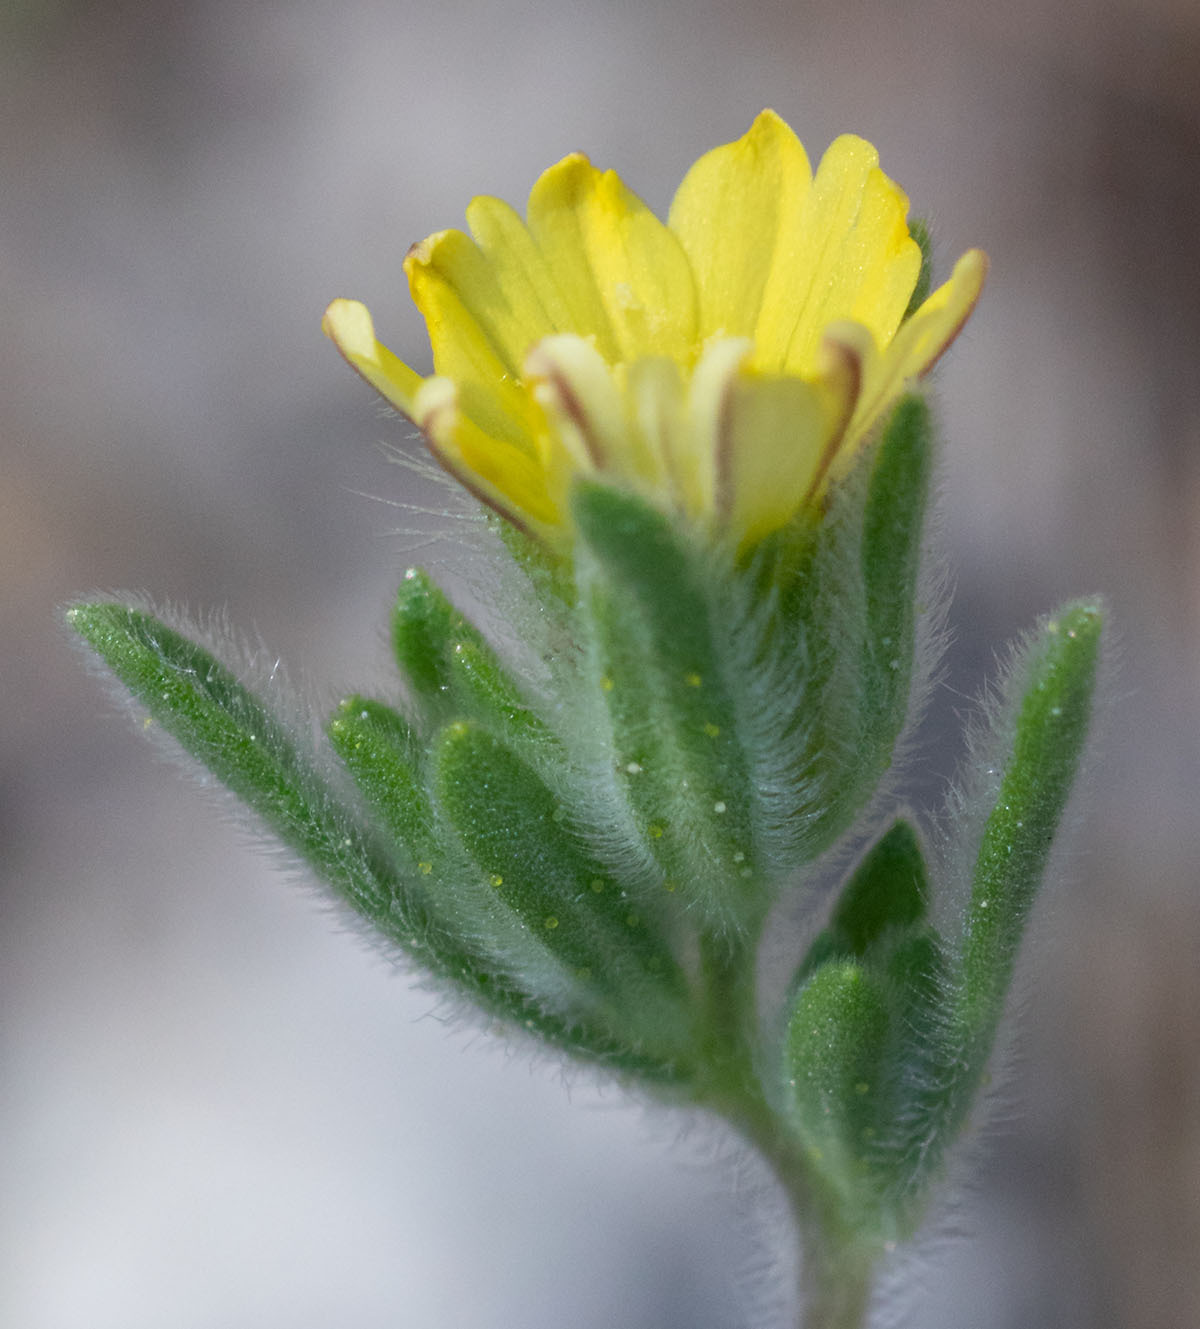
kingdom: Plantae
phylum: Tracheophyta
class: Magnoliopsida
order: Asterales
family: Asteraceae
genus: Lagophylla
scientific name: Lagophylla ramosissima
